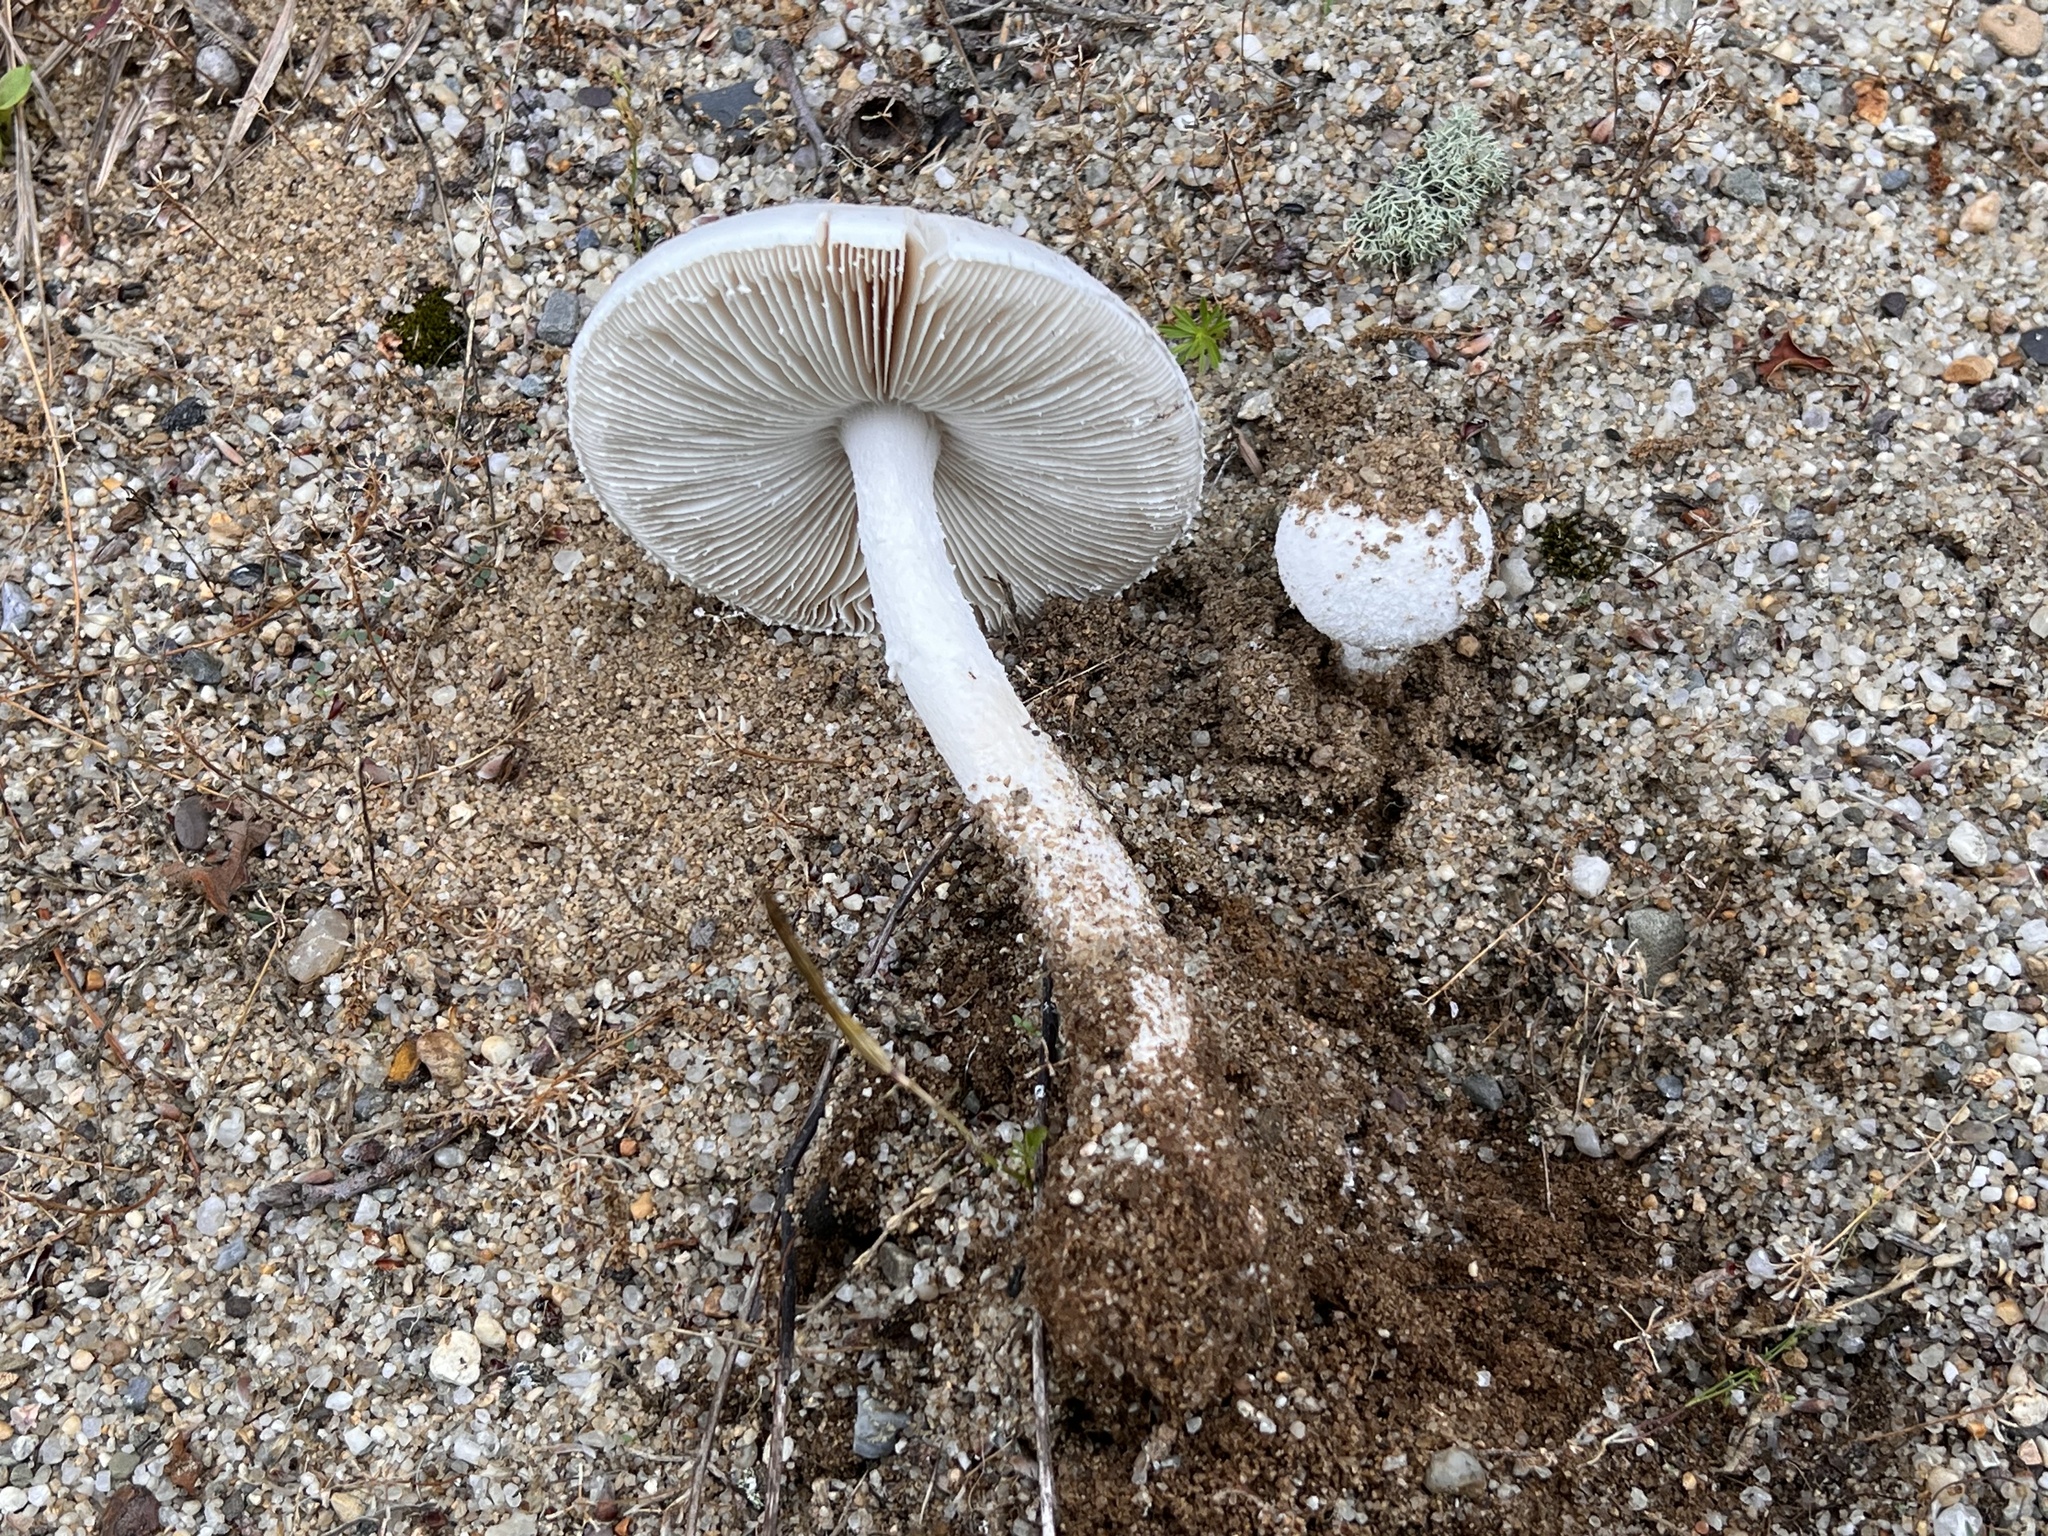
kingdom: Fungi
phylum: Basidiomycota
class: Agaricomycetes
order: Agaricales
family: Amanitaceae
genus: Amanita
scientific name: Amanita longipes
